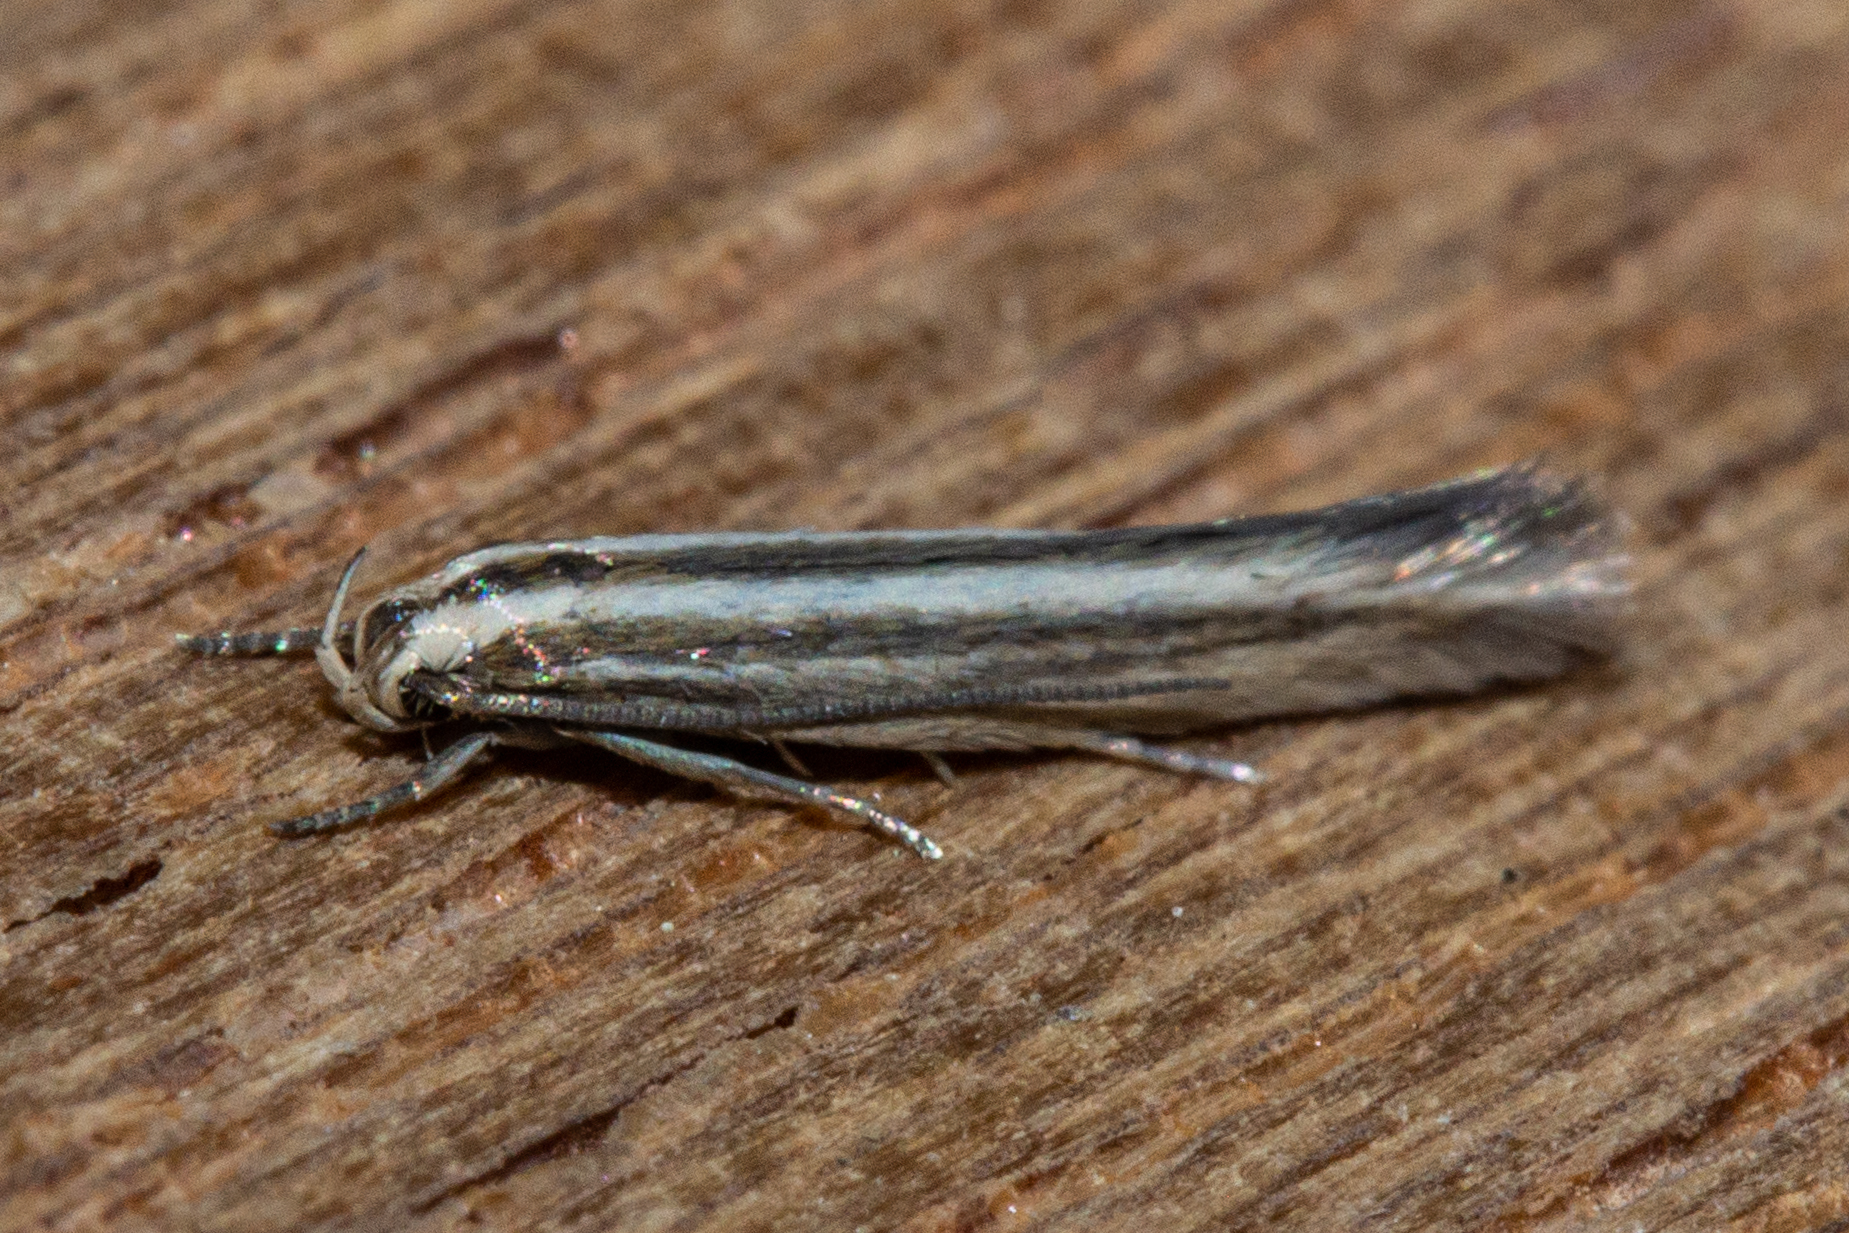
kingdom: Animalia
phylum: Arthropoda
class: Insecta
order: Lepidoptera
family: Elachistidae
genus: Elachista
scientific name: Elachista thallophora
